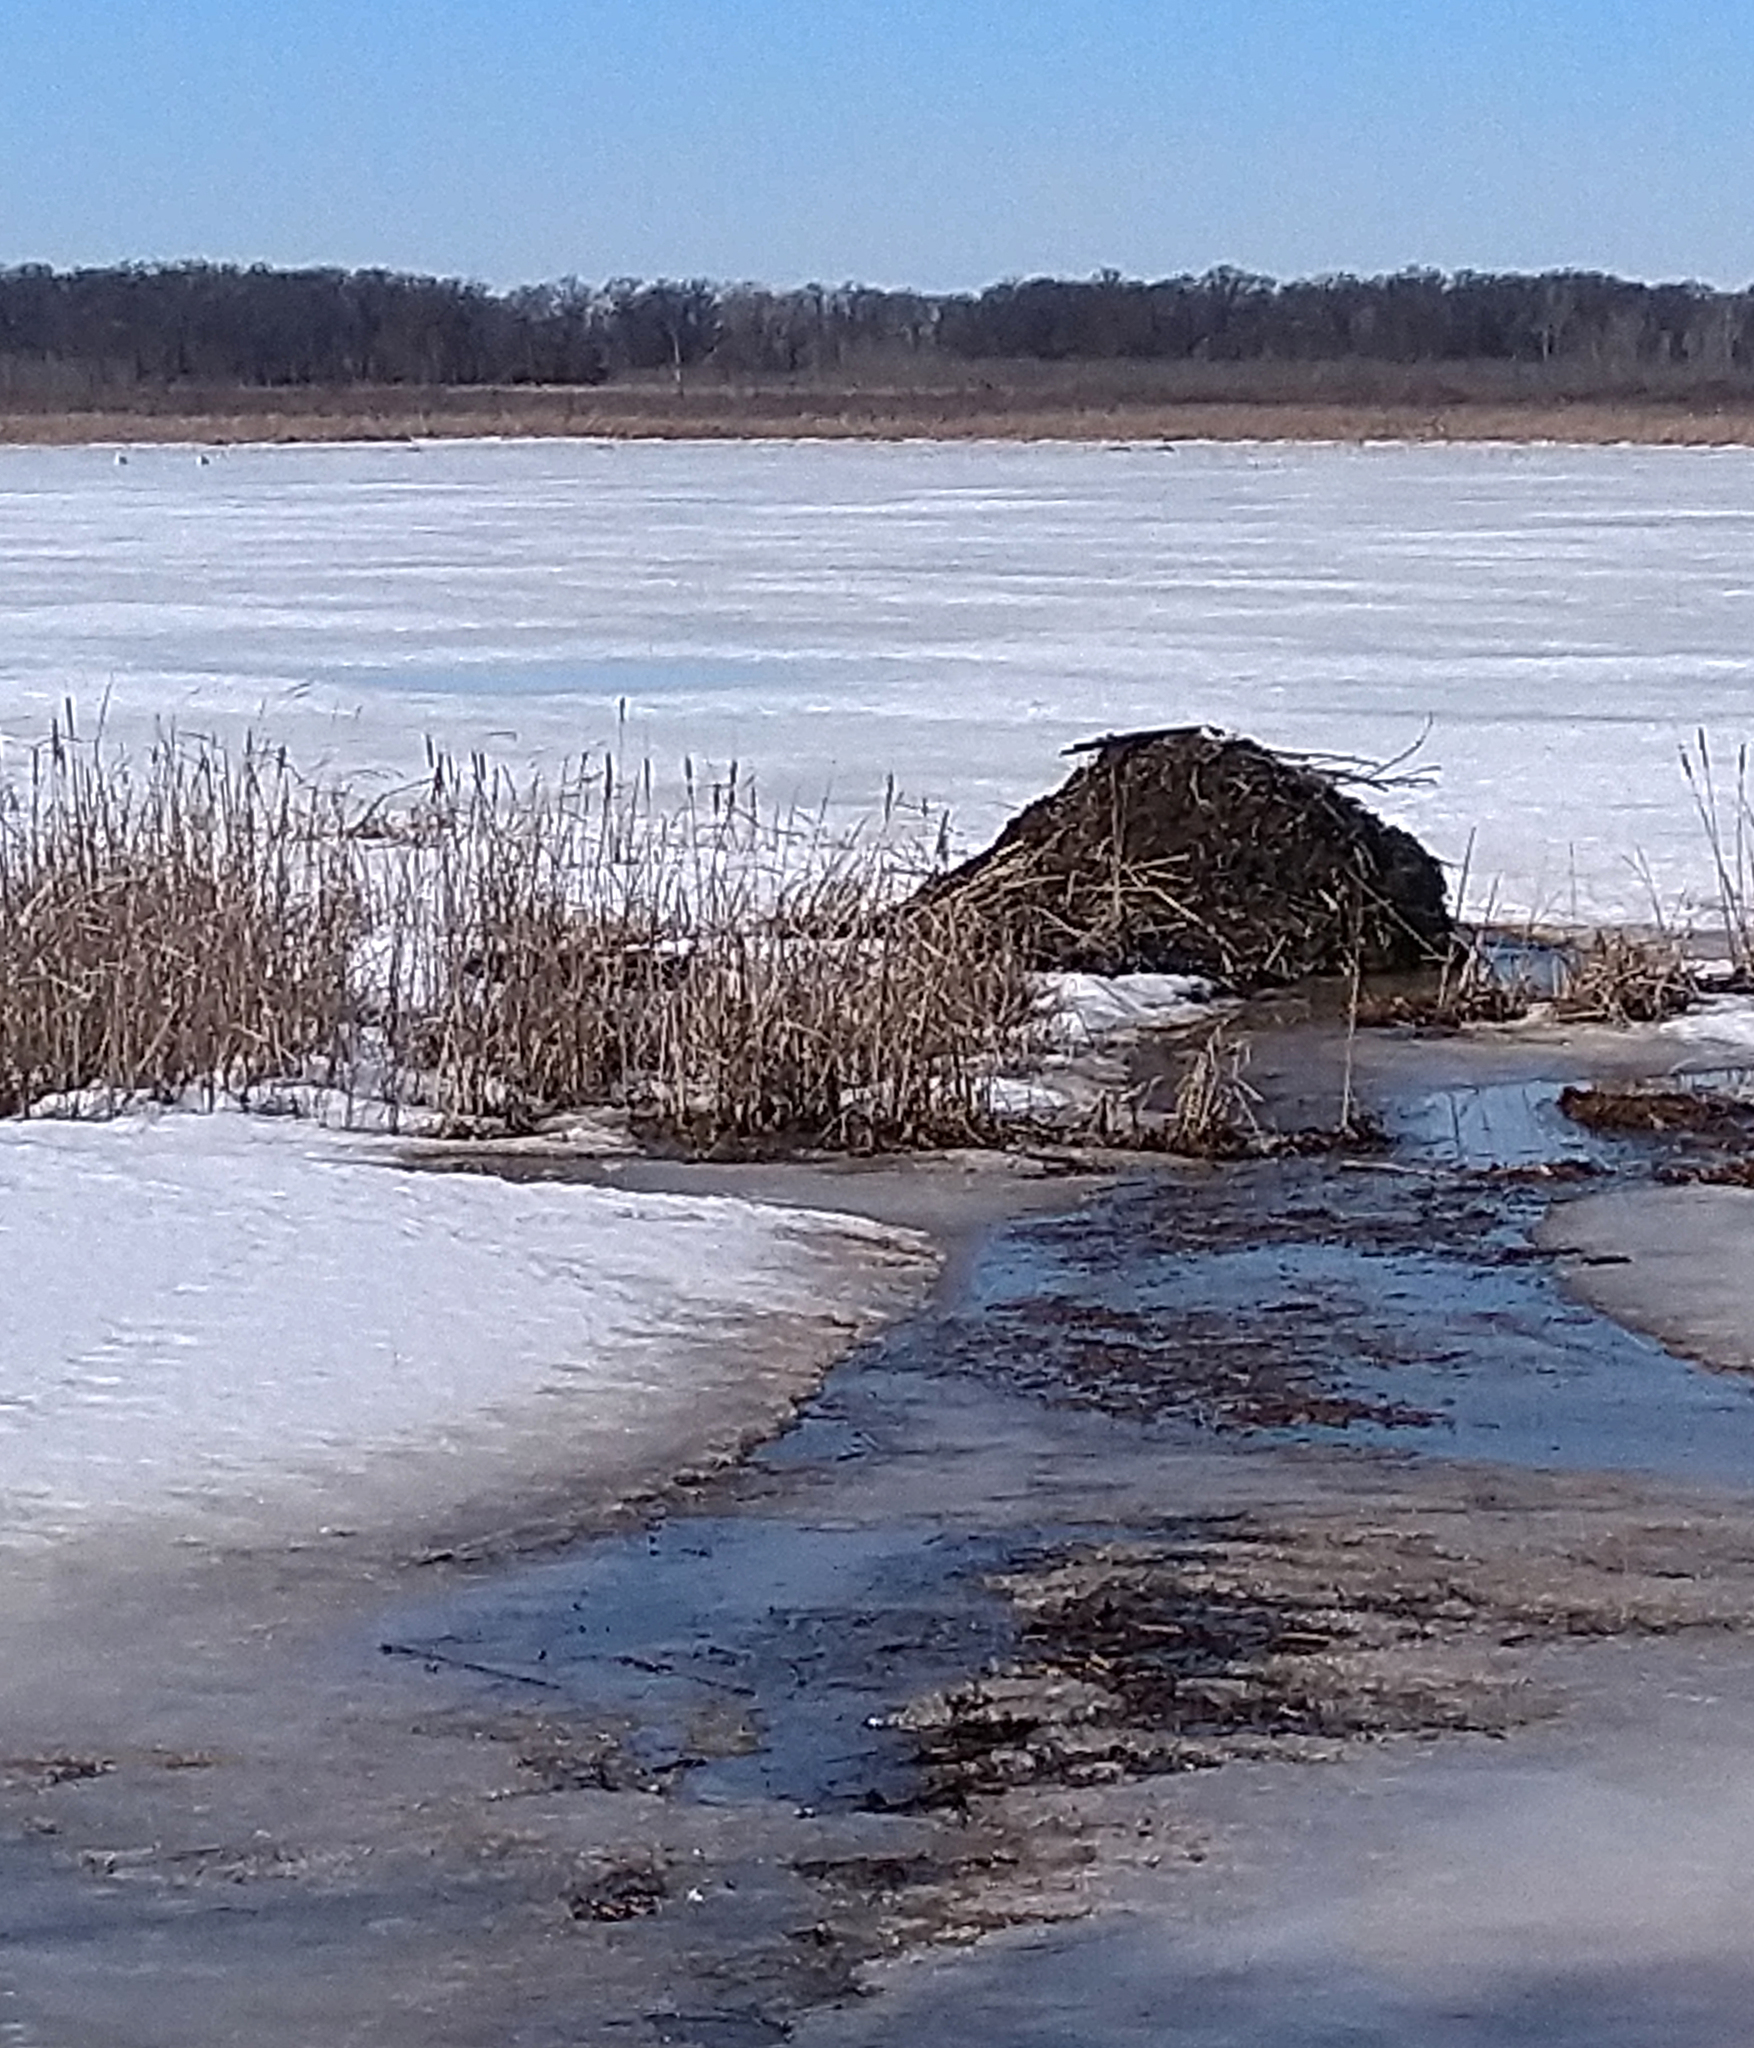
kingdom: Animalia
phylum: Chordata
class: Mammalia
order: Rodentia
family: Castoridae
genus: Castor
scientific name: Castor canadensis
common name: American beaver
